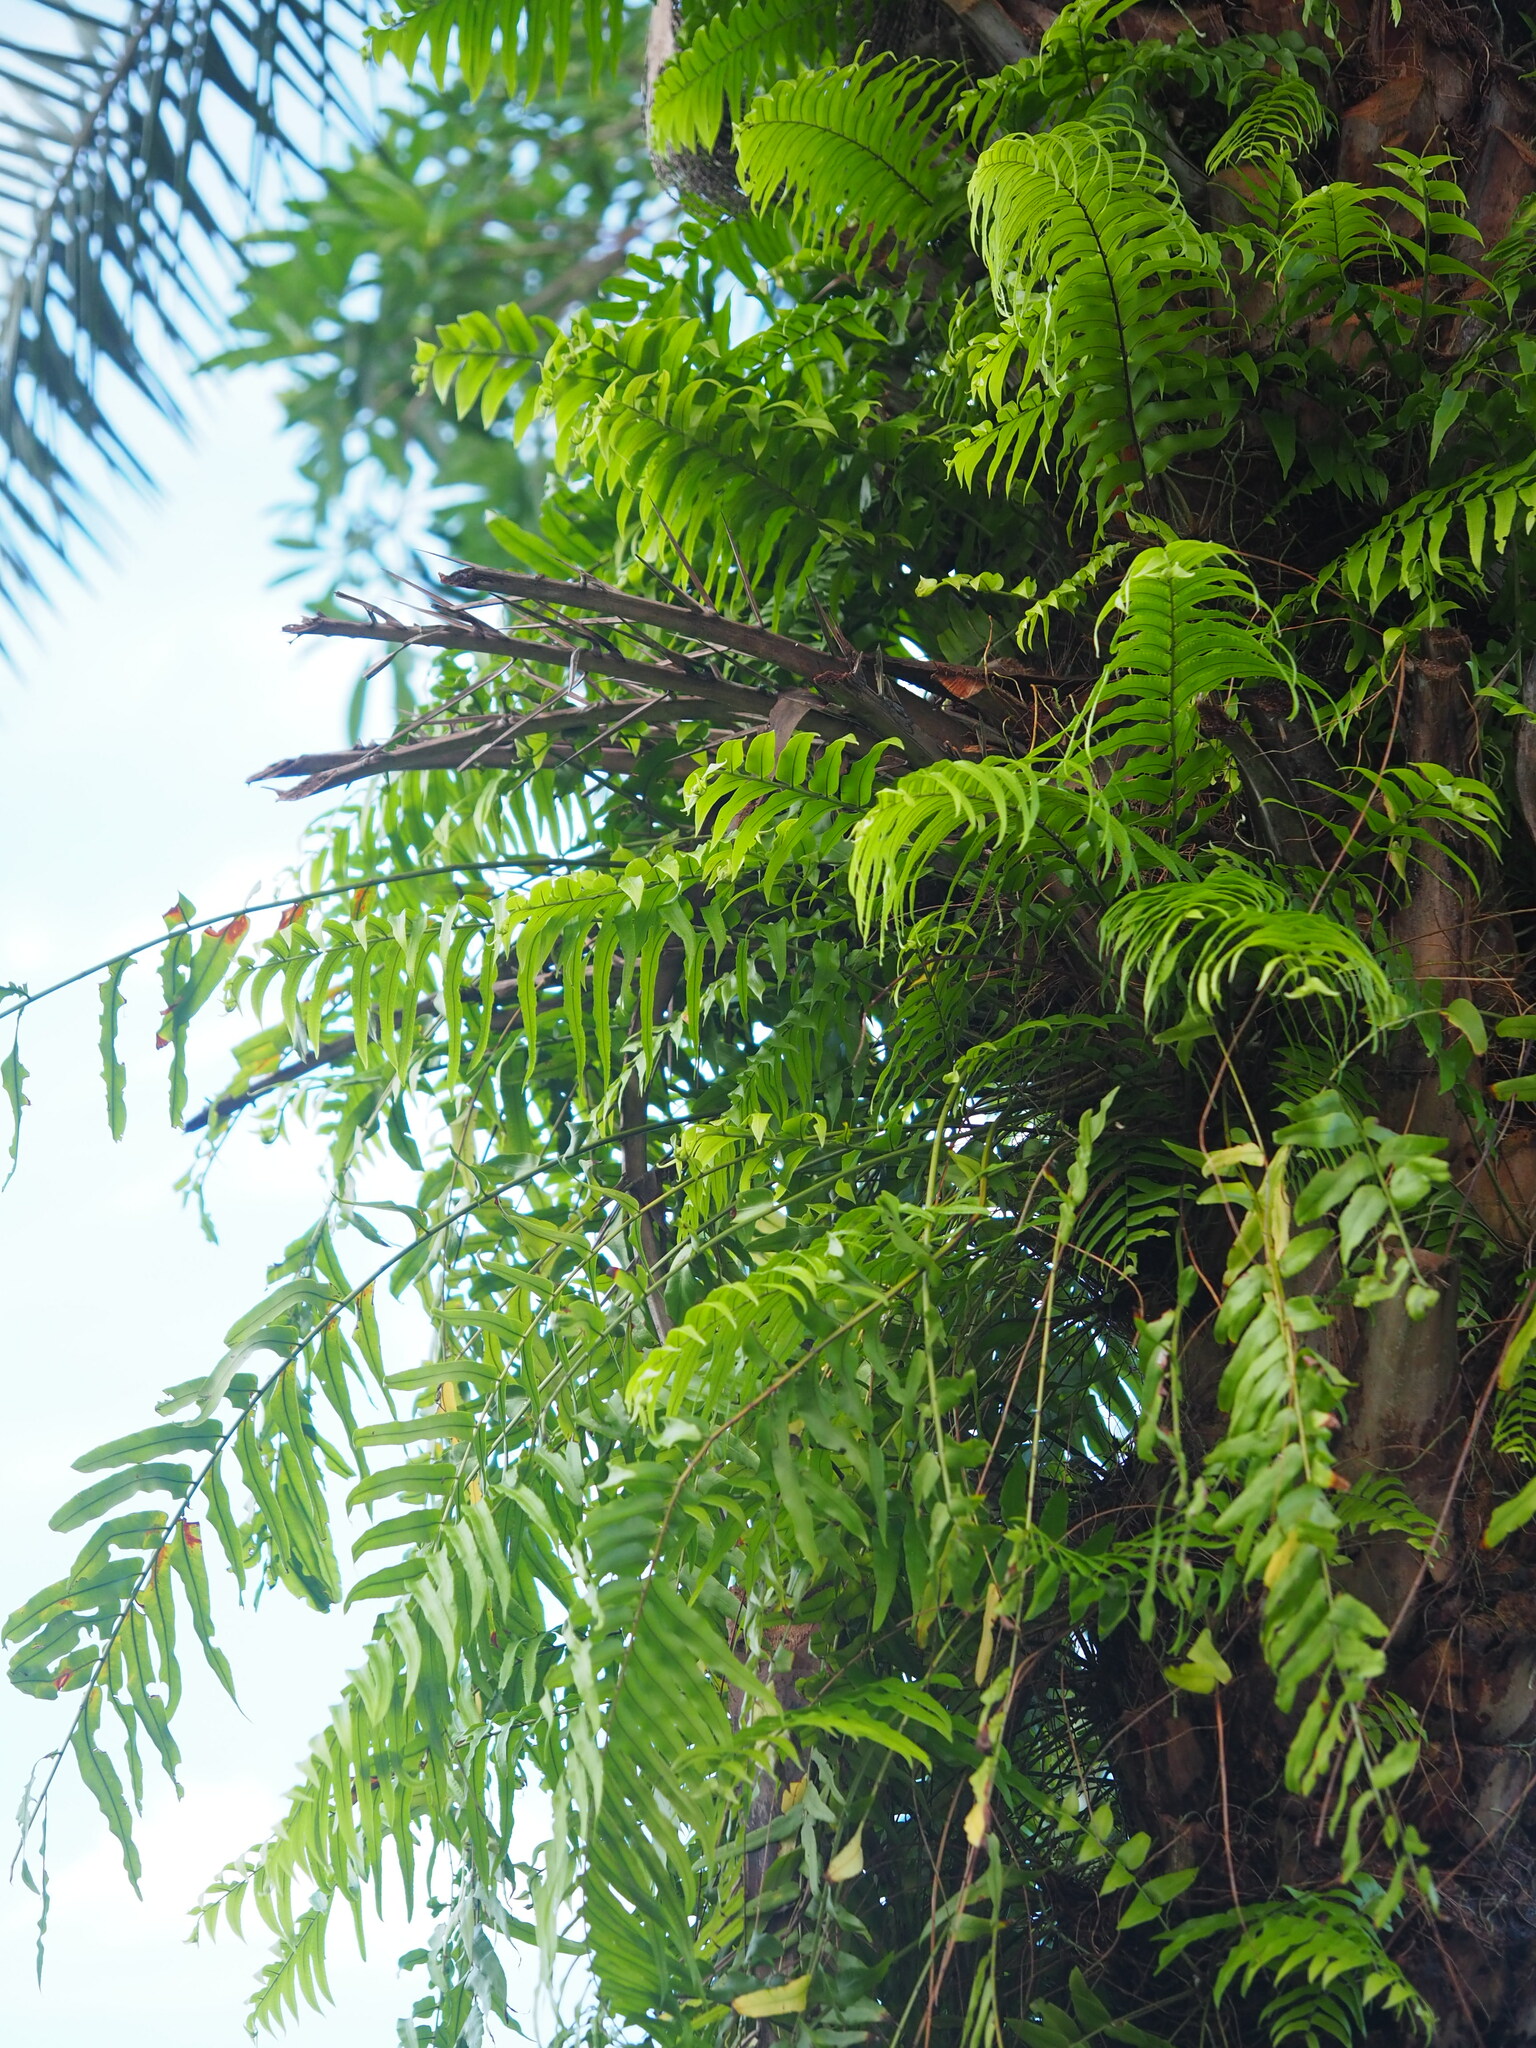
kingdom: Plantae
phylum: Tracheophyta
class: Polypodiopsida
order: Polypodiales
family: Nephrolepidaceae
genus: Nephrolepis
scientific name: Nephrolepis biserrata
